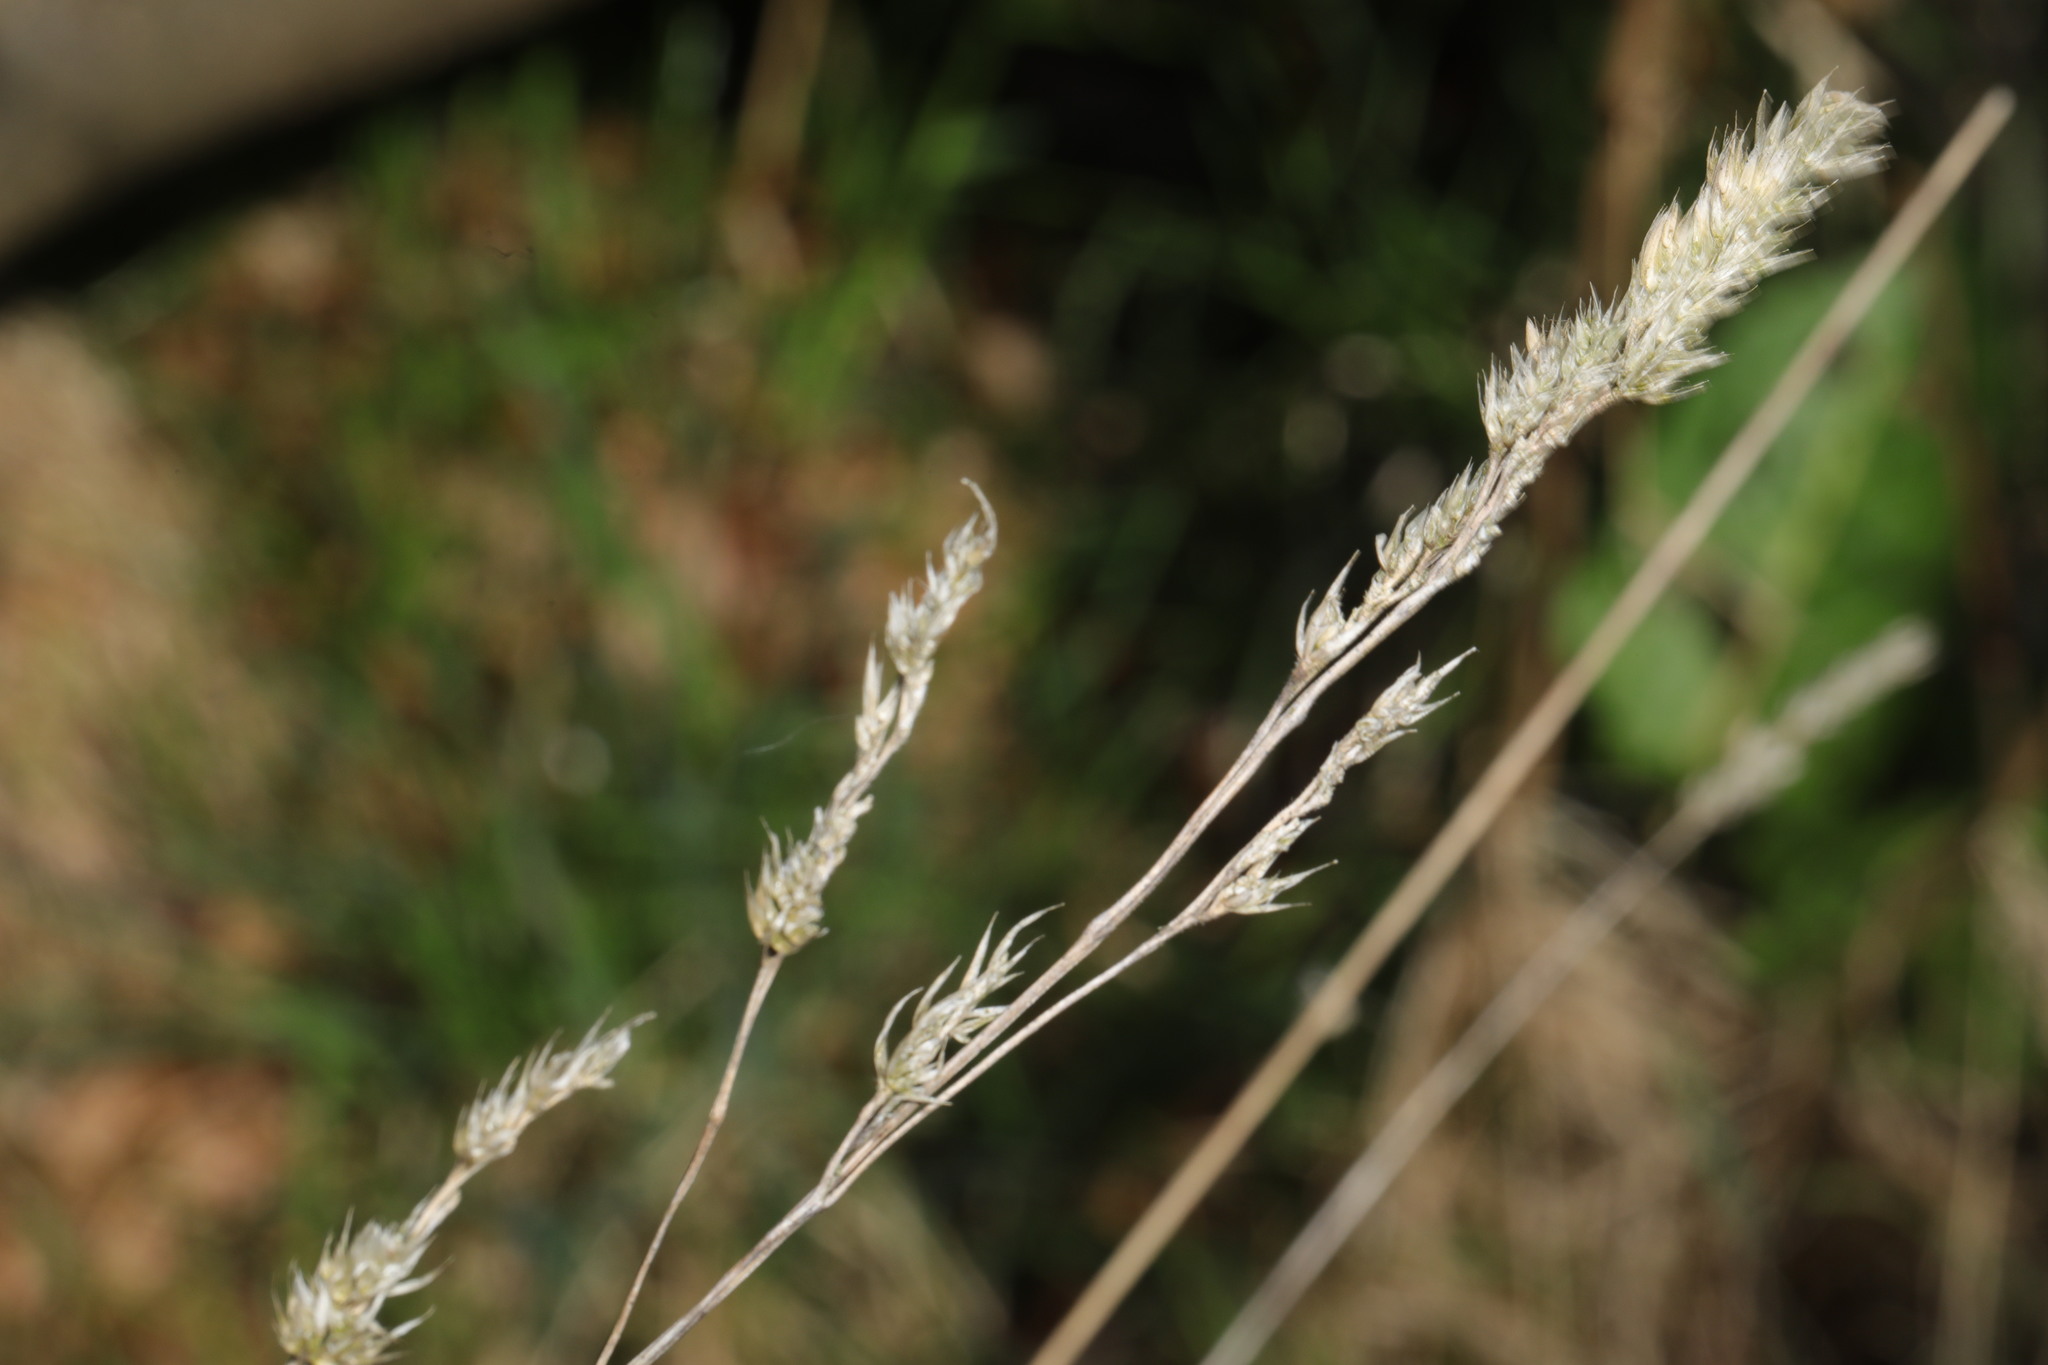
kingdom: Plantae
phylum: Tracheophyta
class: Liliopsida
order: Poales
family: Poaceae
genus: Dactylis
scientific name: Dactylis glomerata
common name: Orchardgrass
